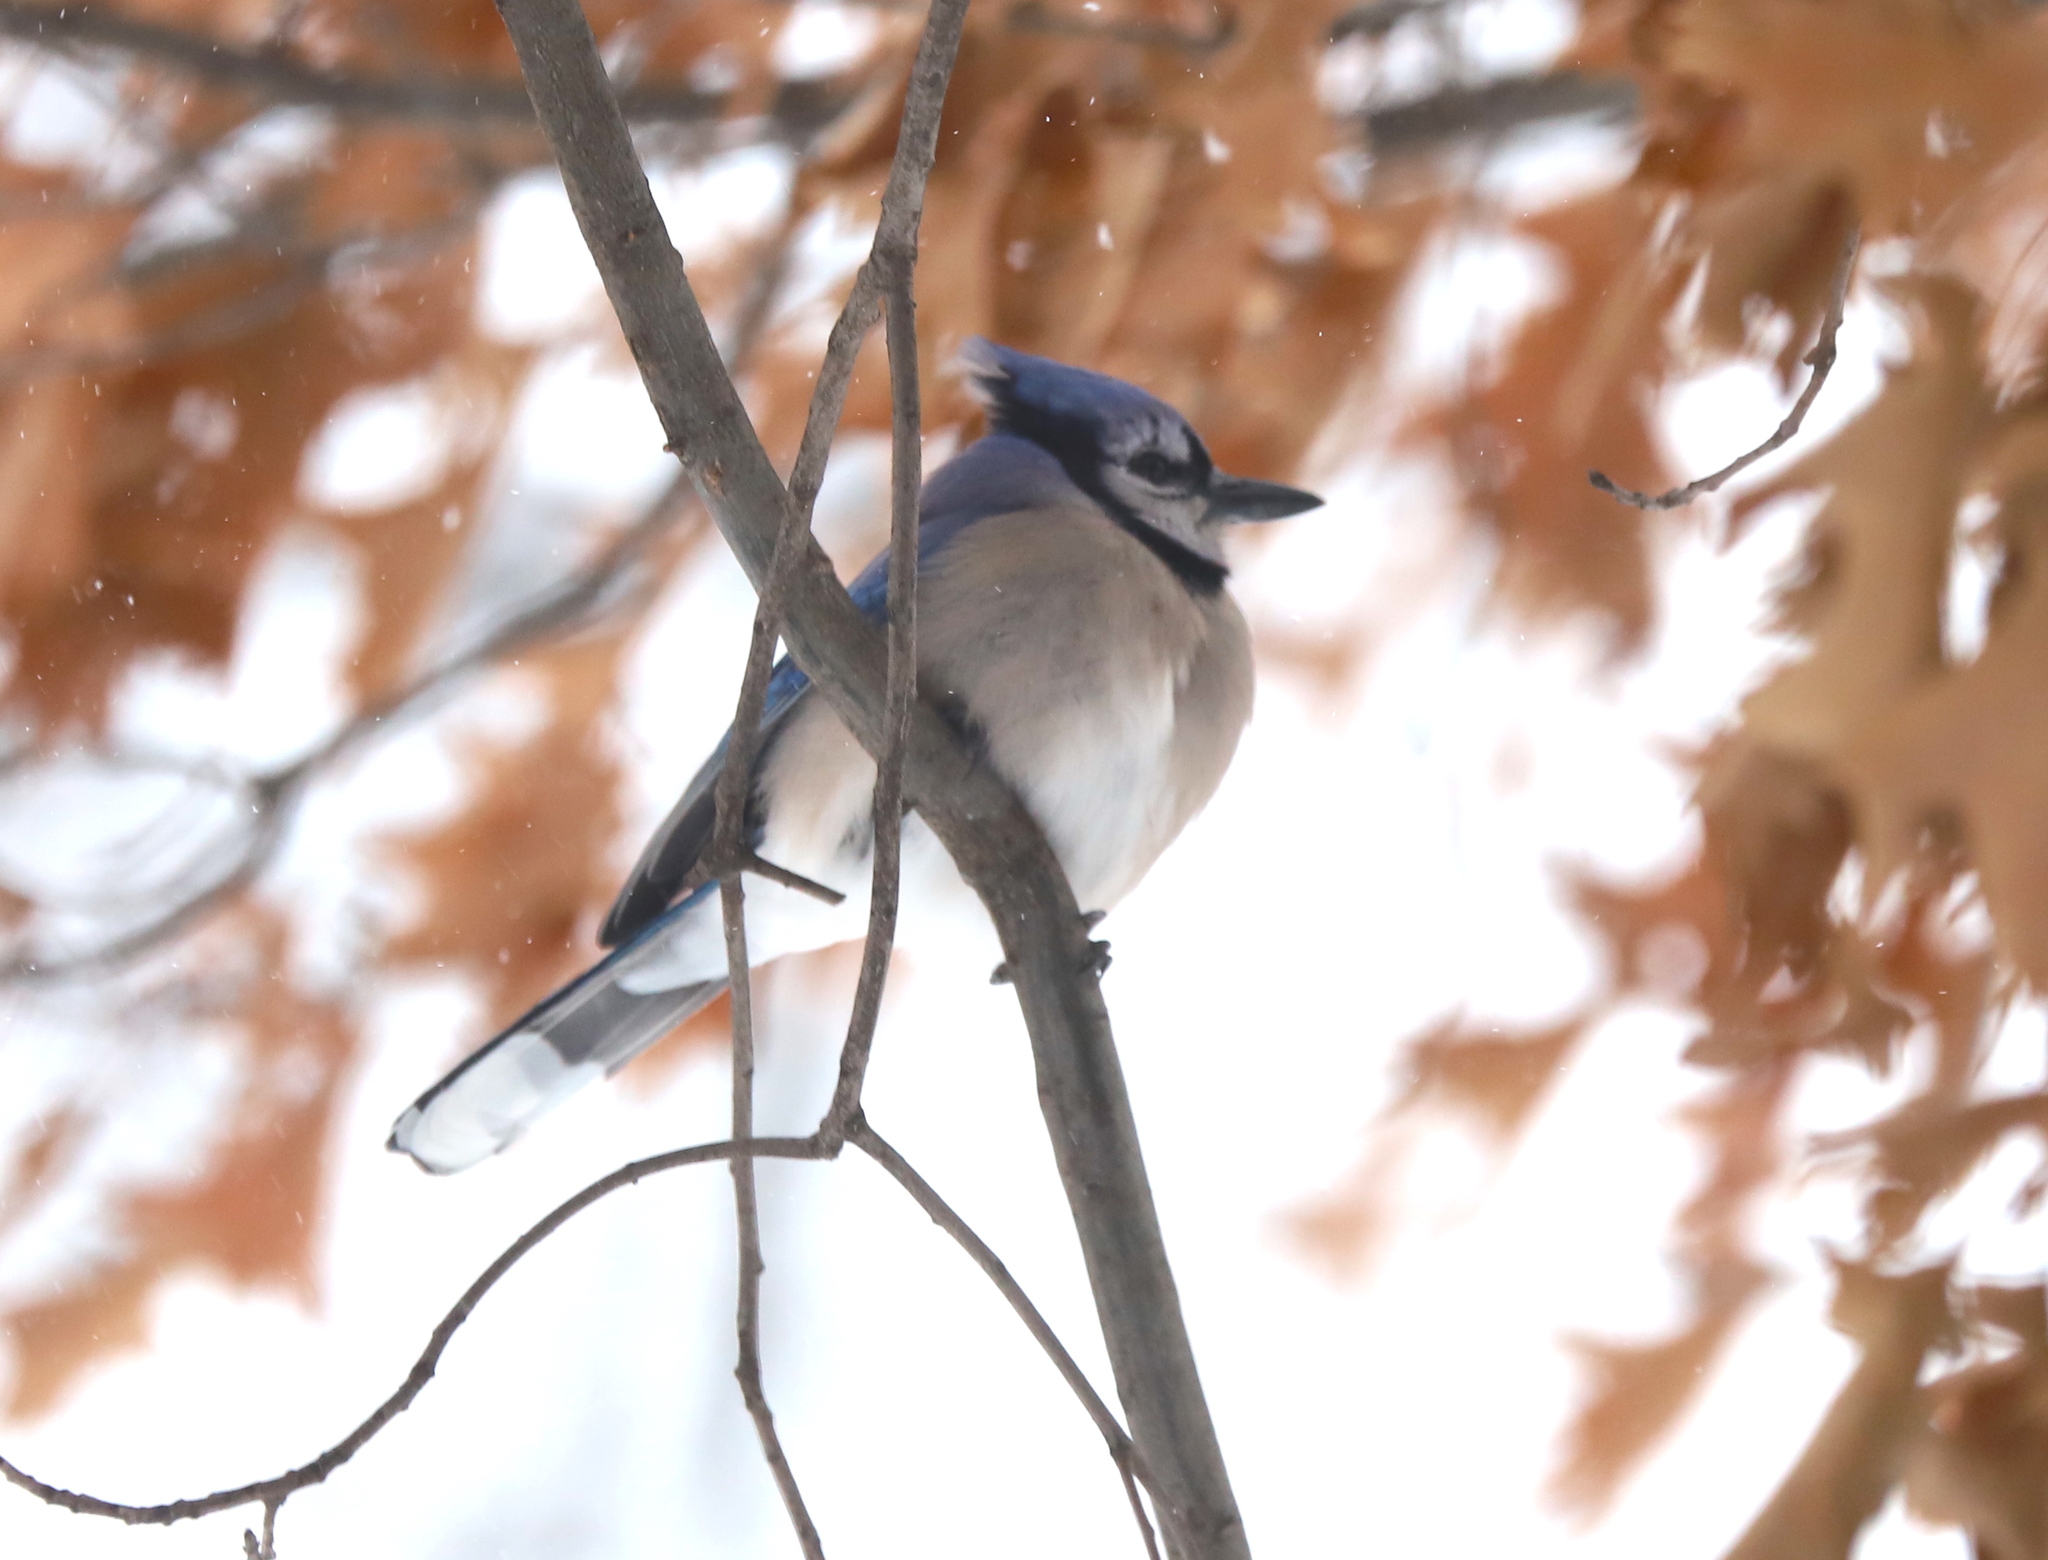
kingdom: Animalia
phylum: Chordata
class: Aves
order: Passeriformes
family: Corvidae
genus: Cyanocitta
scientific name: Cyanocitta cristata
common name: Blue jay
